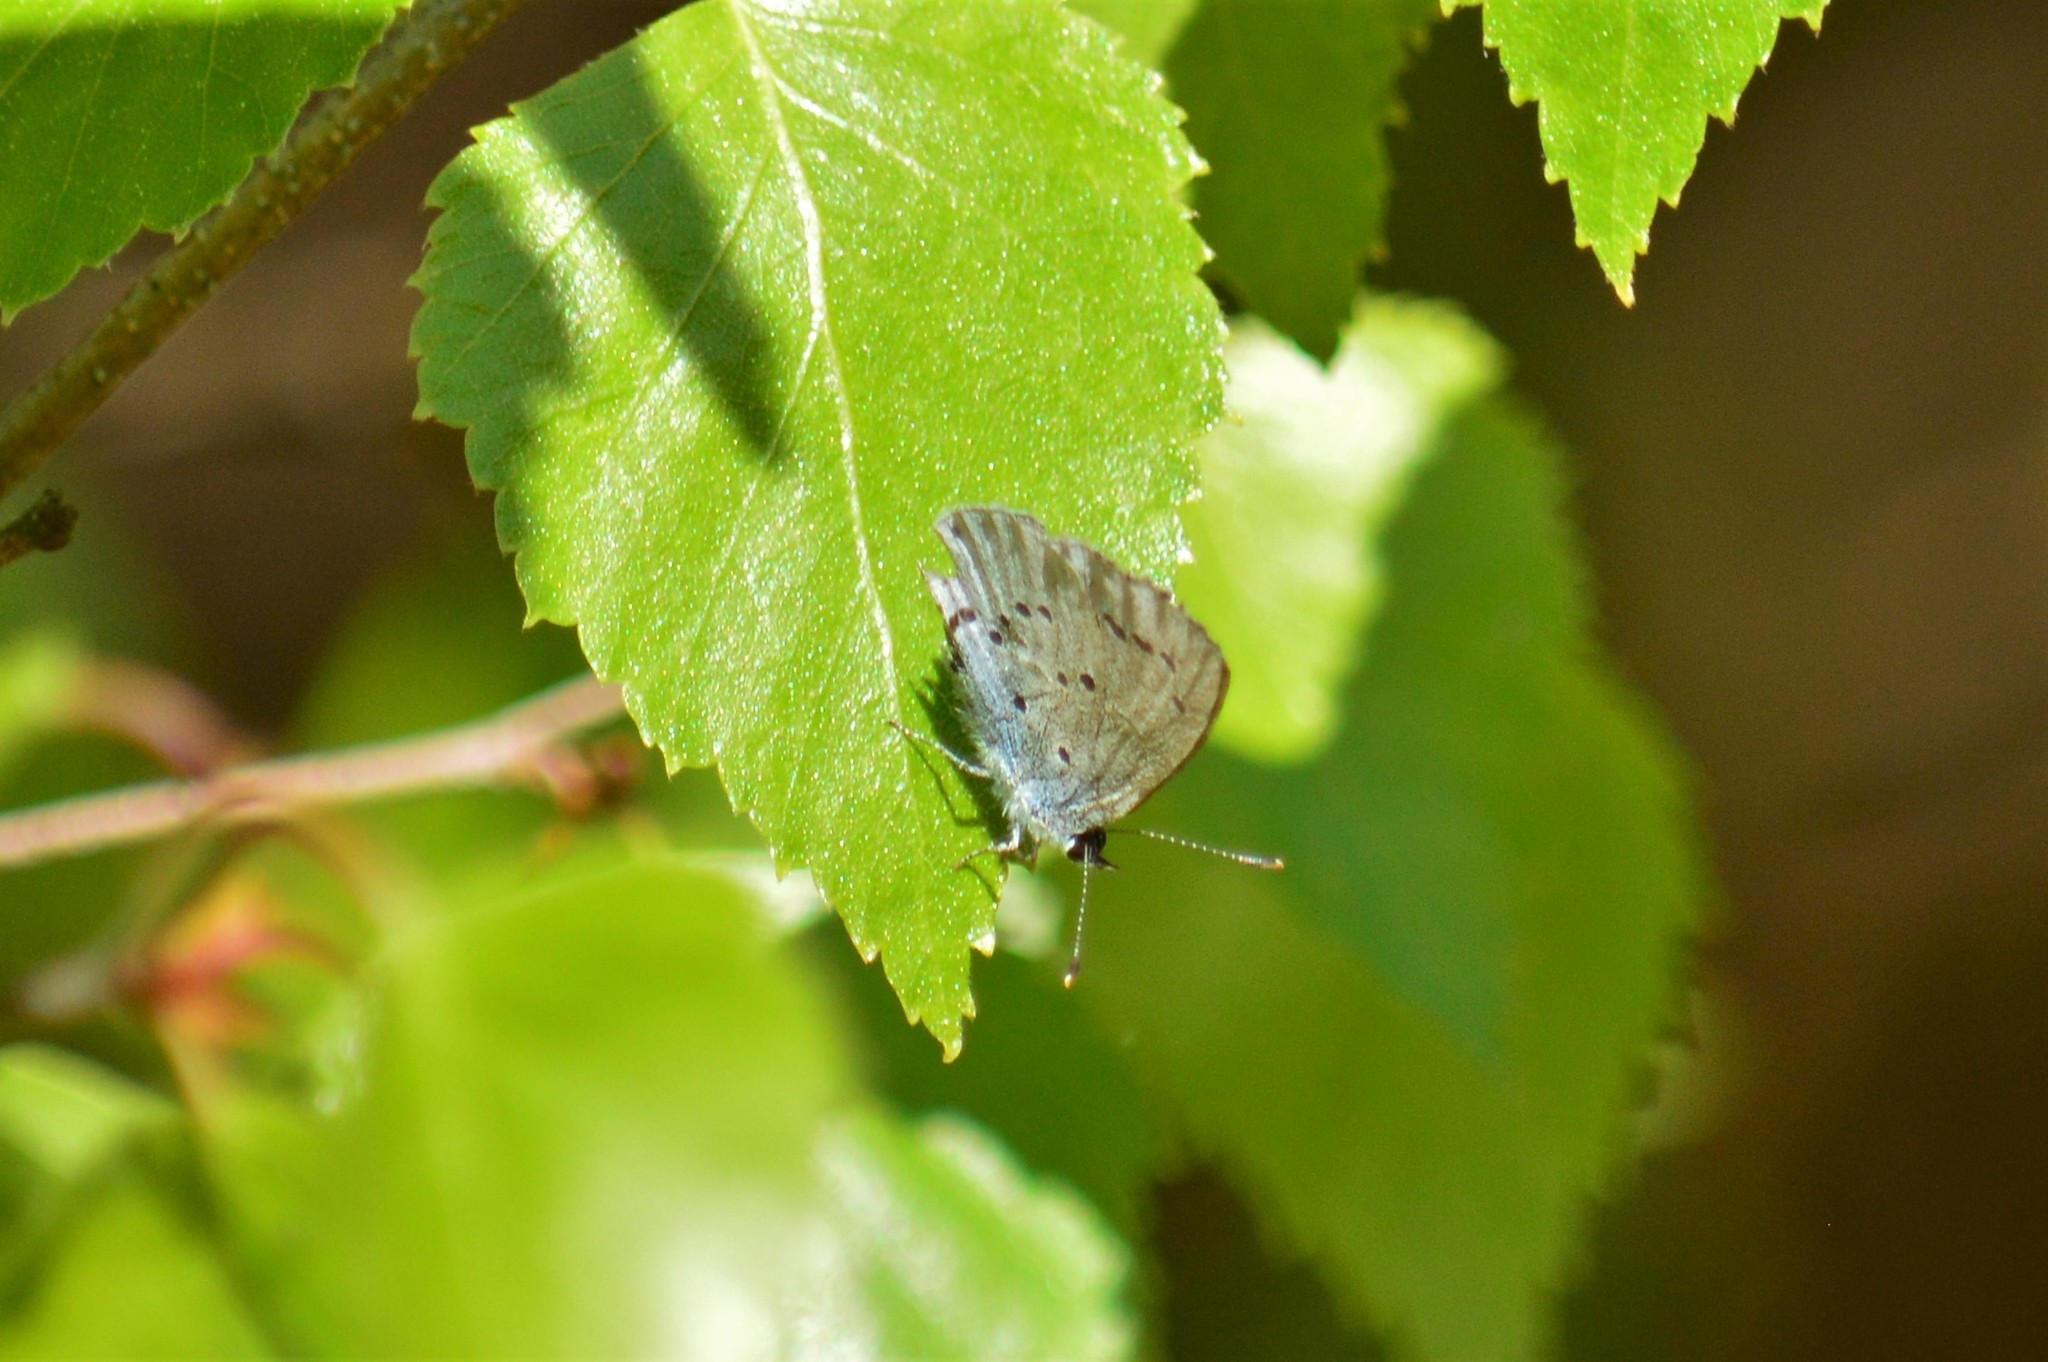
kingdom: Animalia
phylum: Arthropoda
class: Insecta
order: Lepidoptera
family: Lycaenidae
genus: Celastrina
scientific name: Celastrina argiolus
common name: Holly blue
